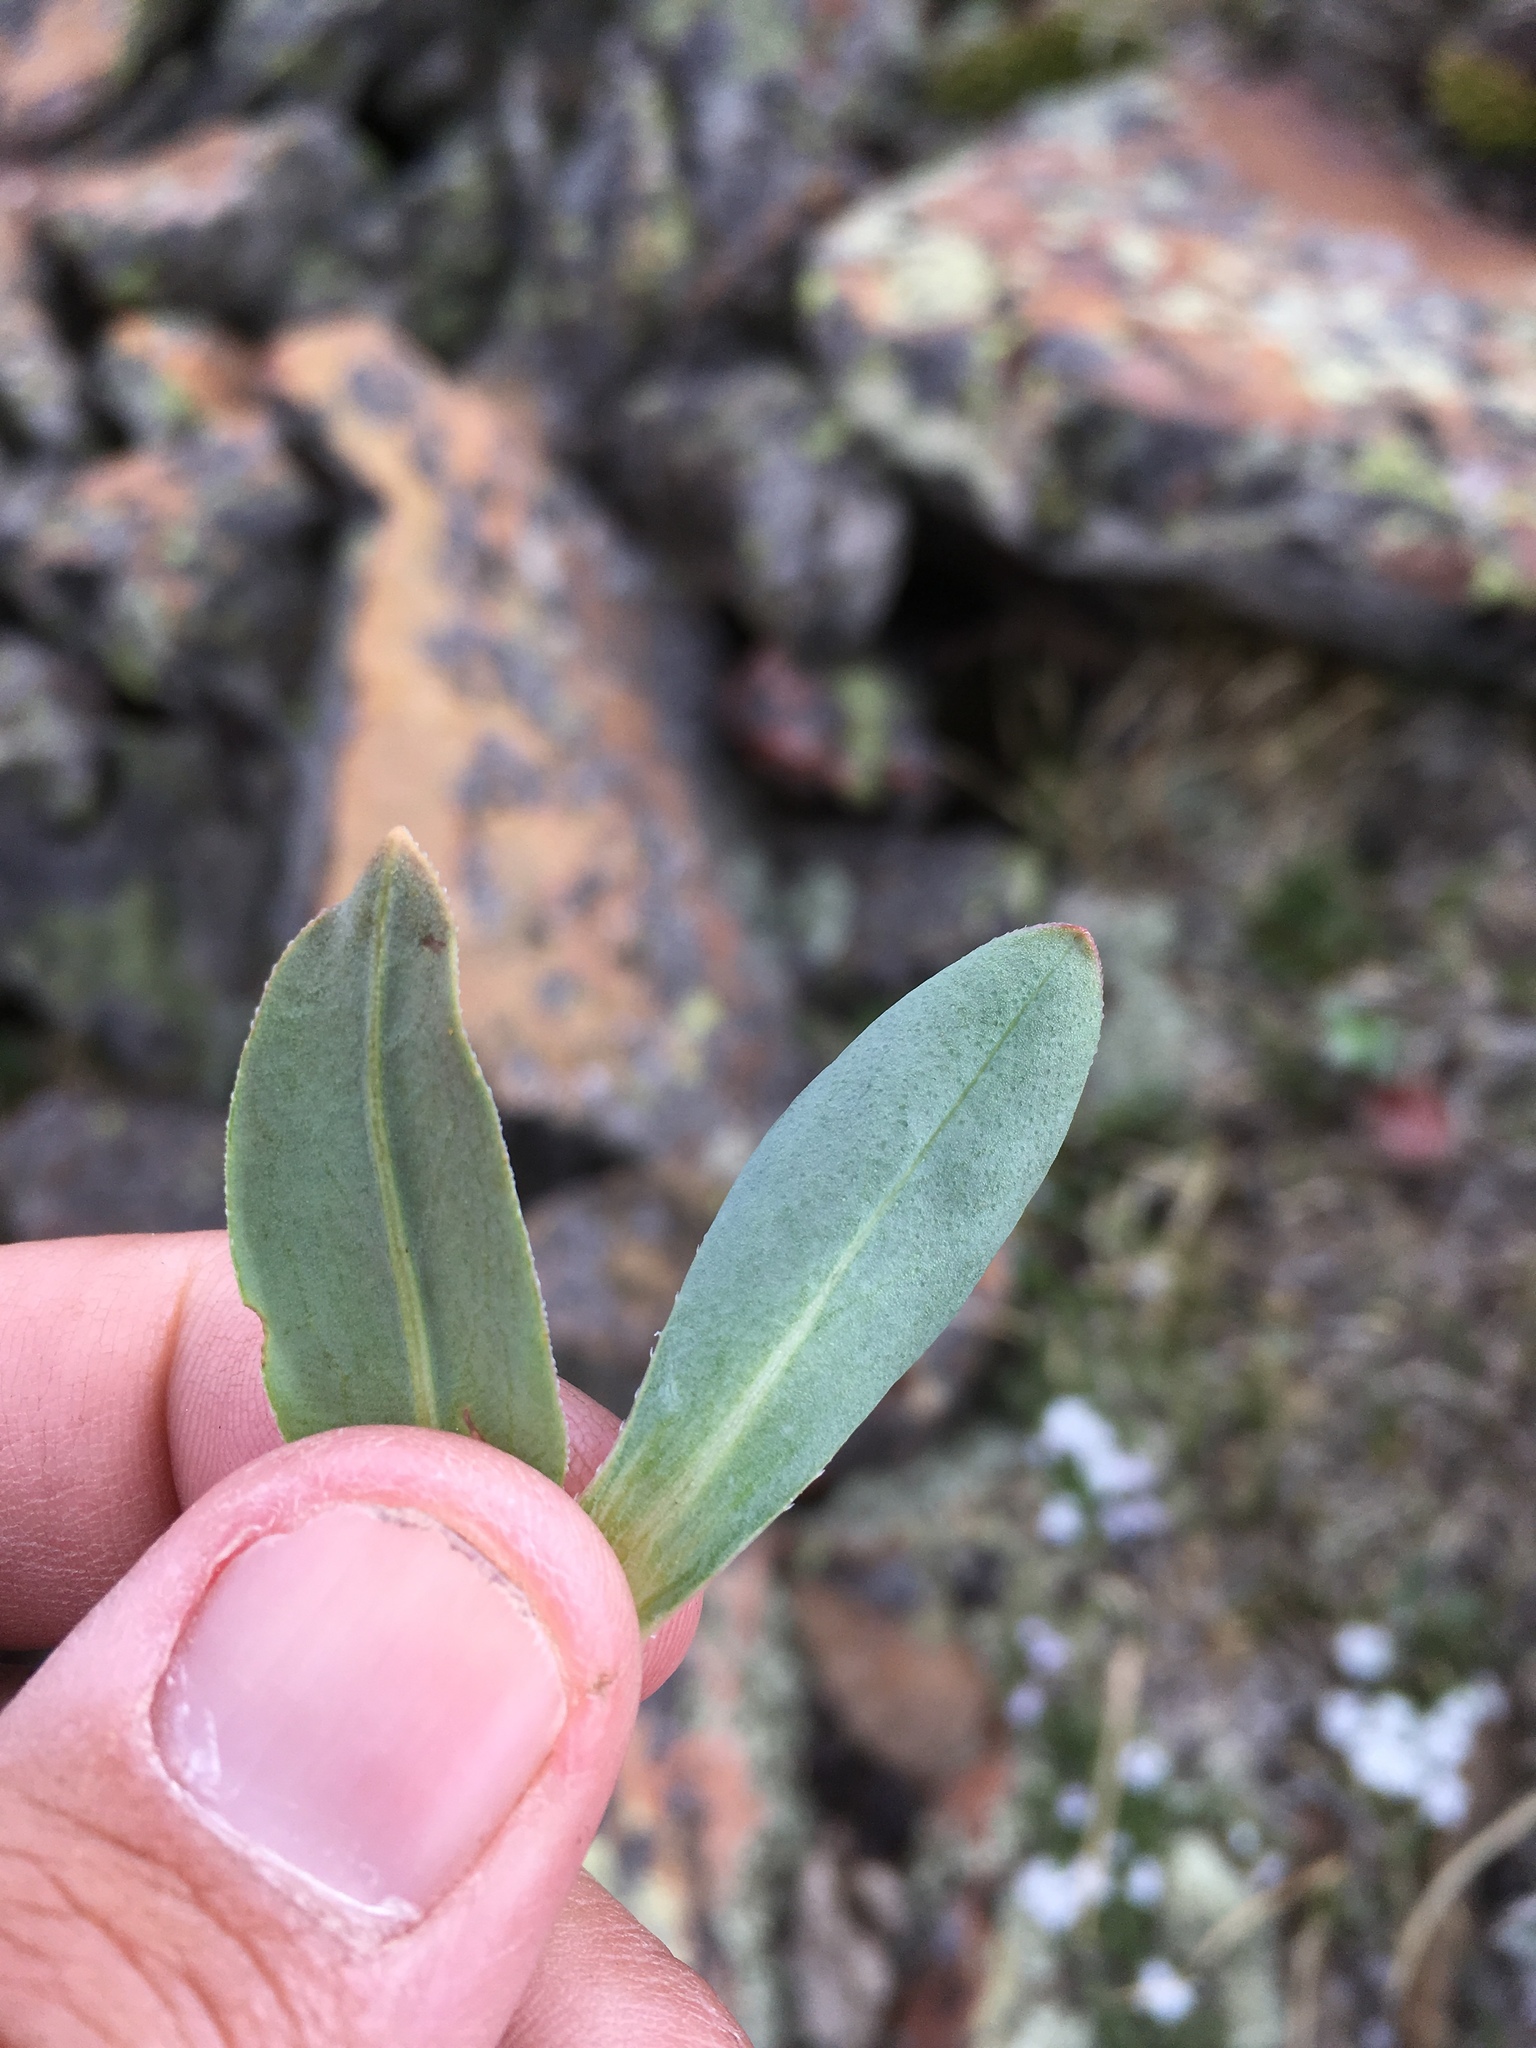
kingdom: Plantae
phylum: Tracheophyta
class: Magnoliopsida
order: Boraginales
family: Boraginaceae
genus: Mertensia
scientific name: Mertensia ovata
